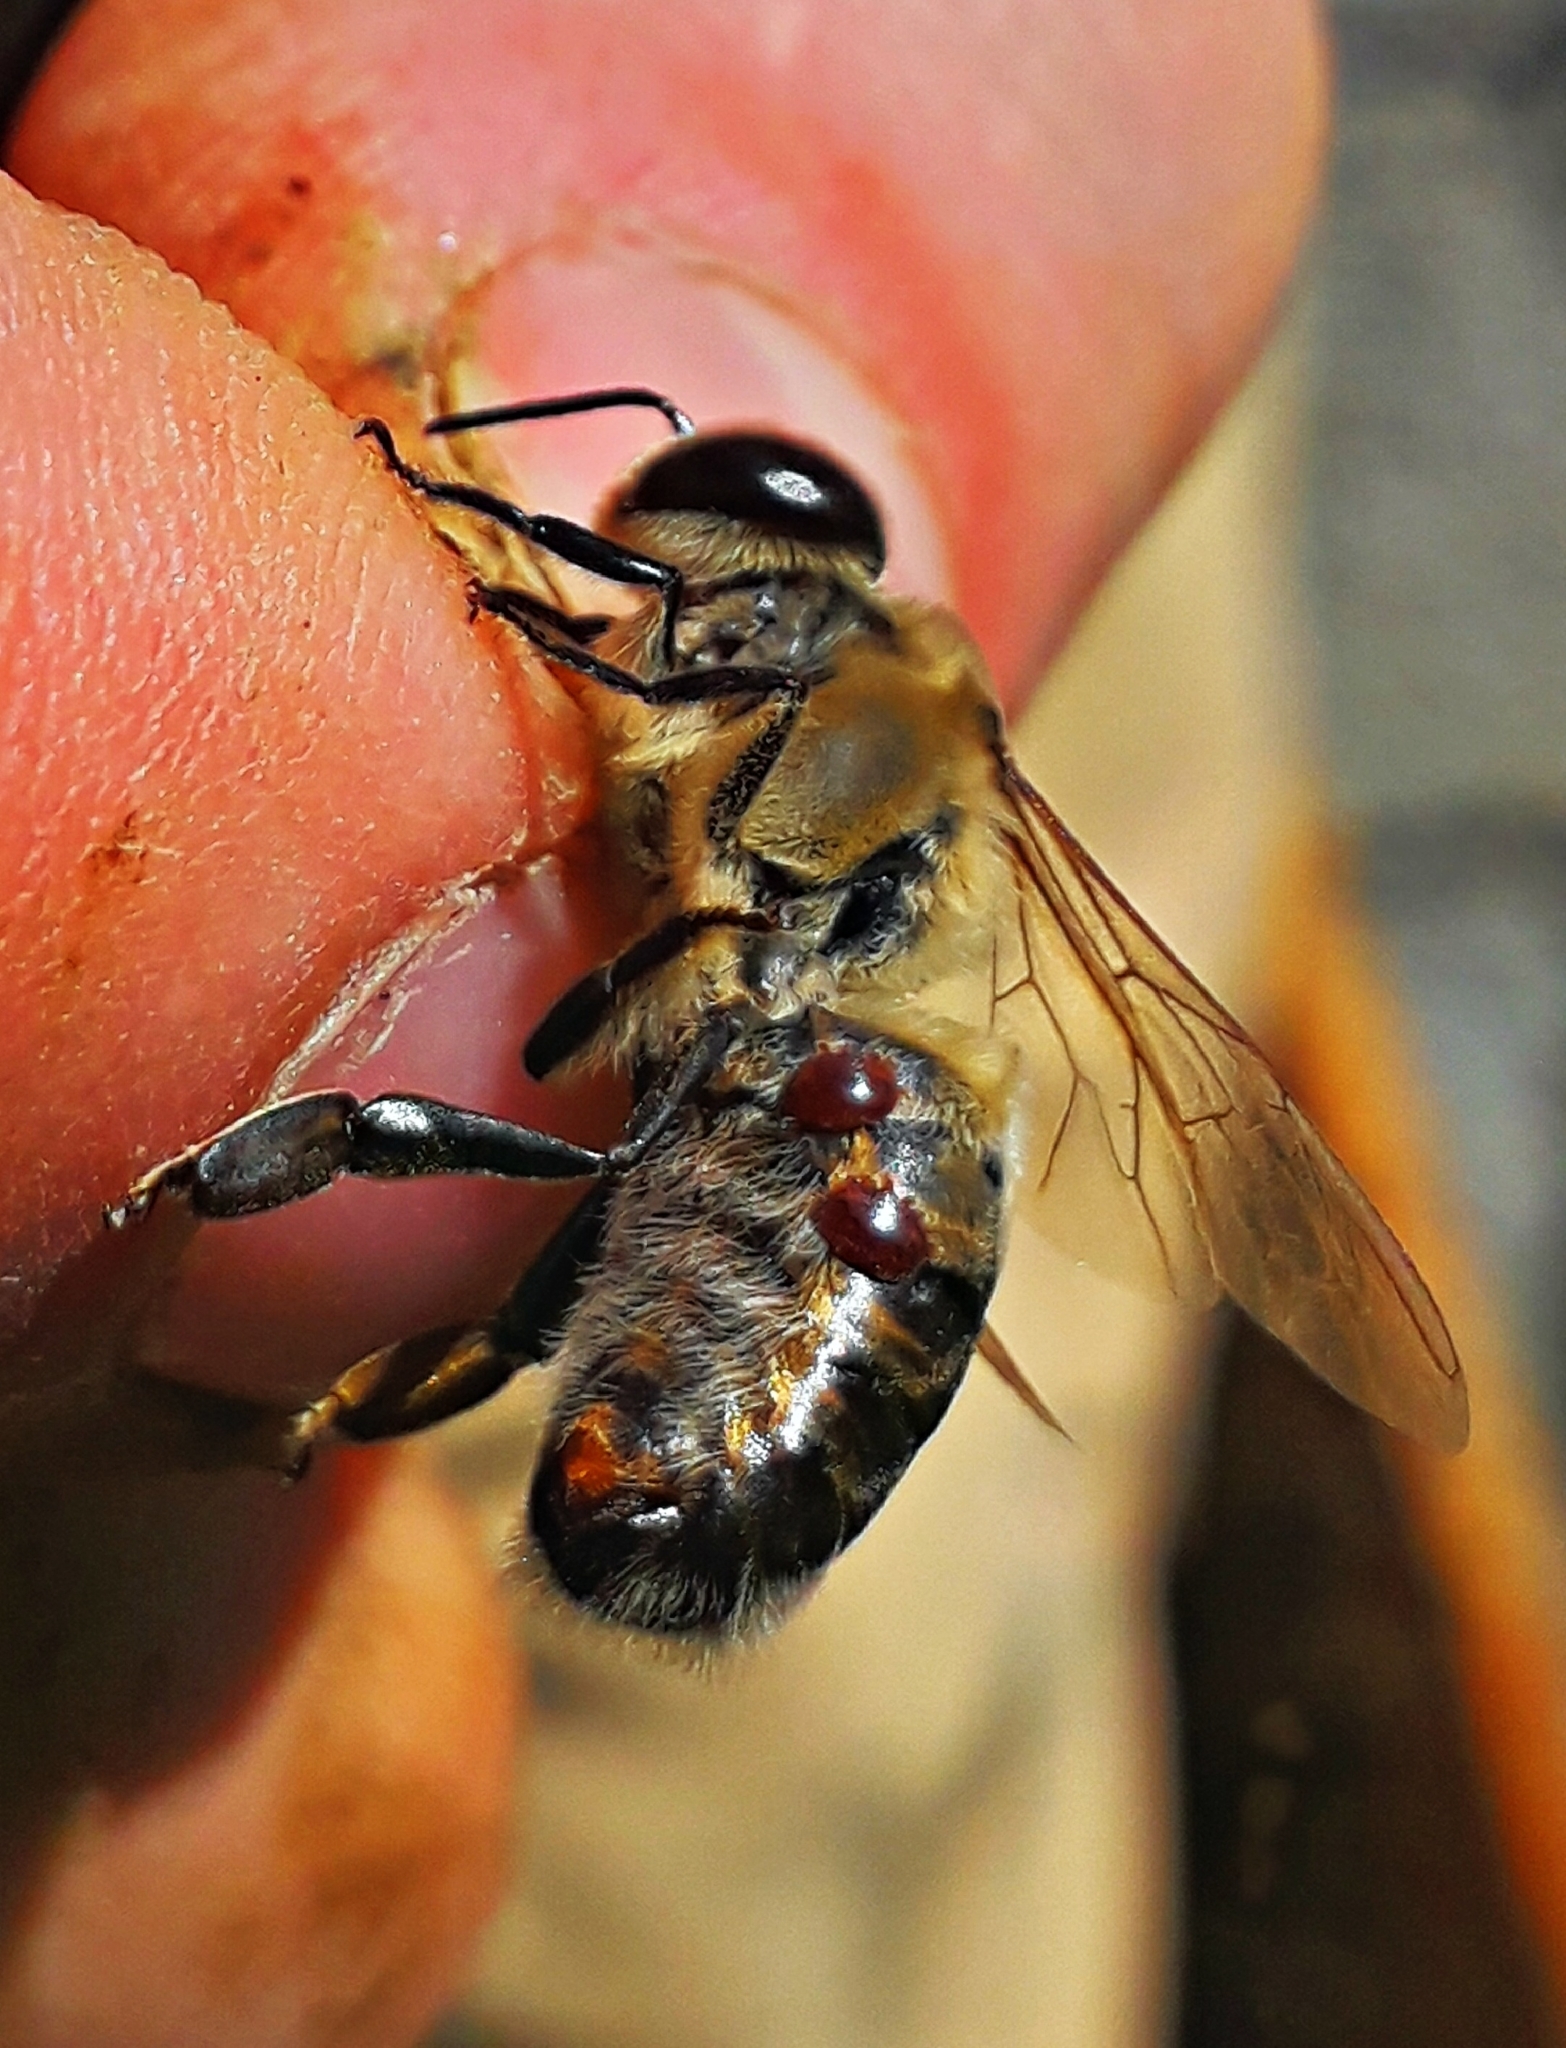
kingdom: Animalia
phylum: Arthropoda
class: Arachnida
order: Mesostigmata
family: Varroidae
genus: Varroa
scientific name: Varroa destructor
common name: Honey bee mite
